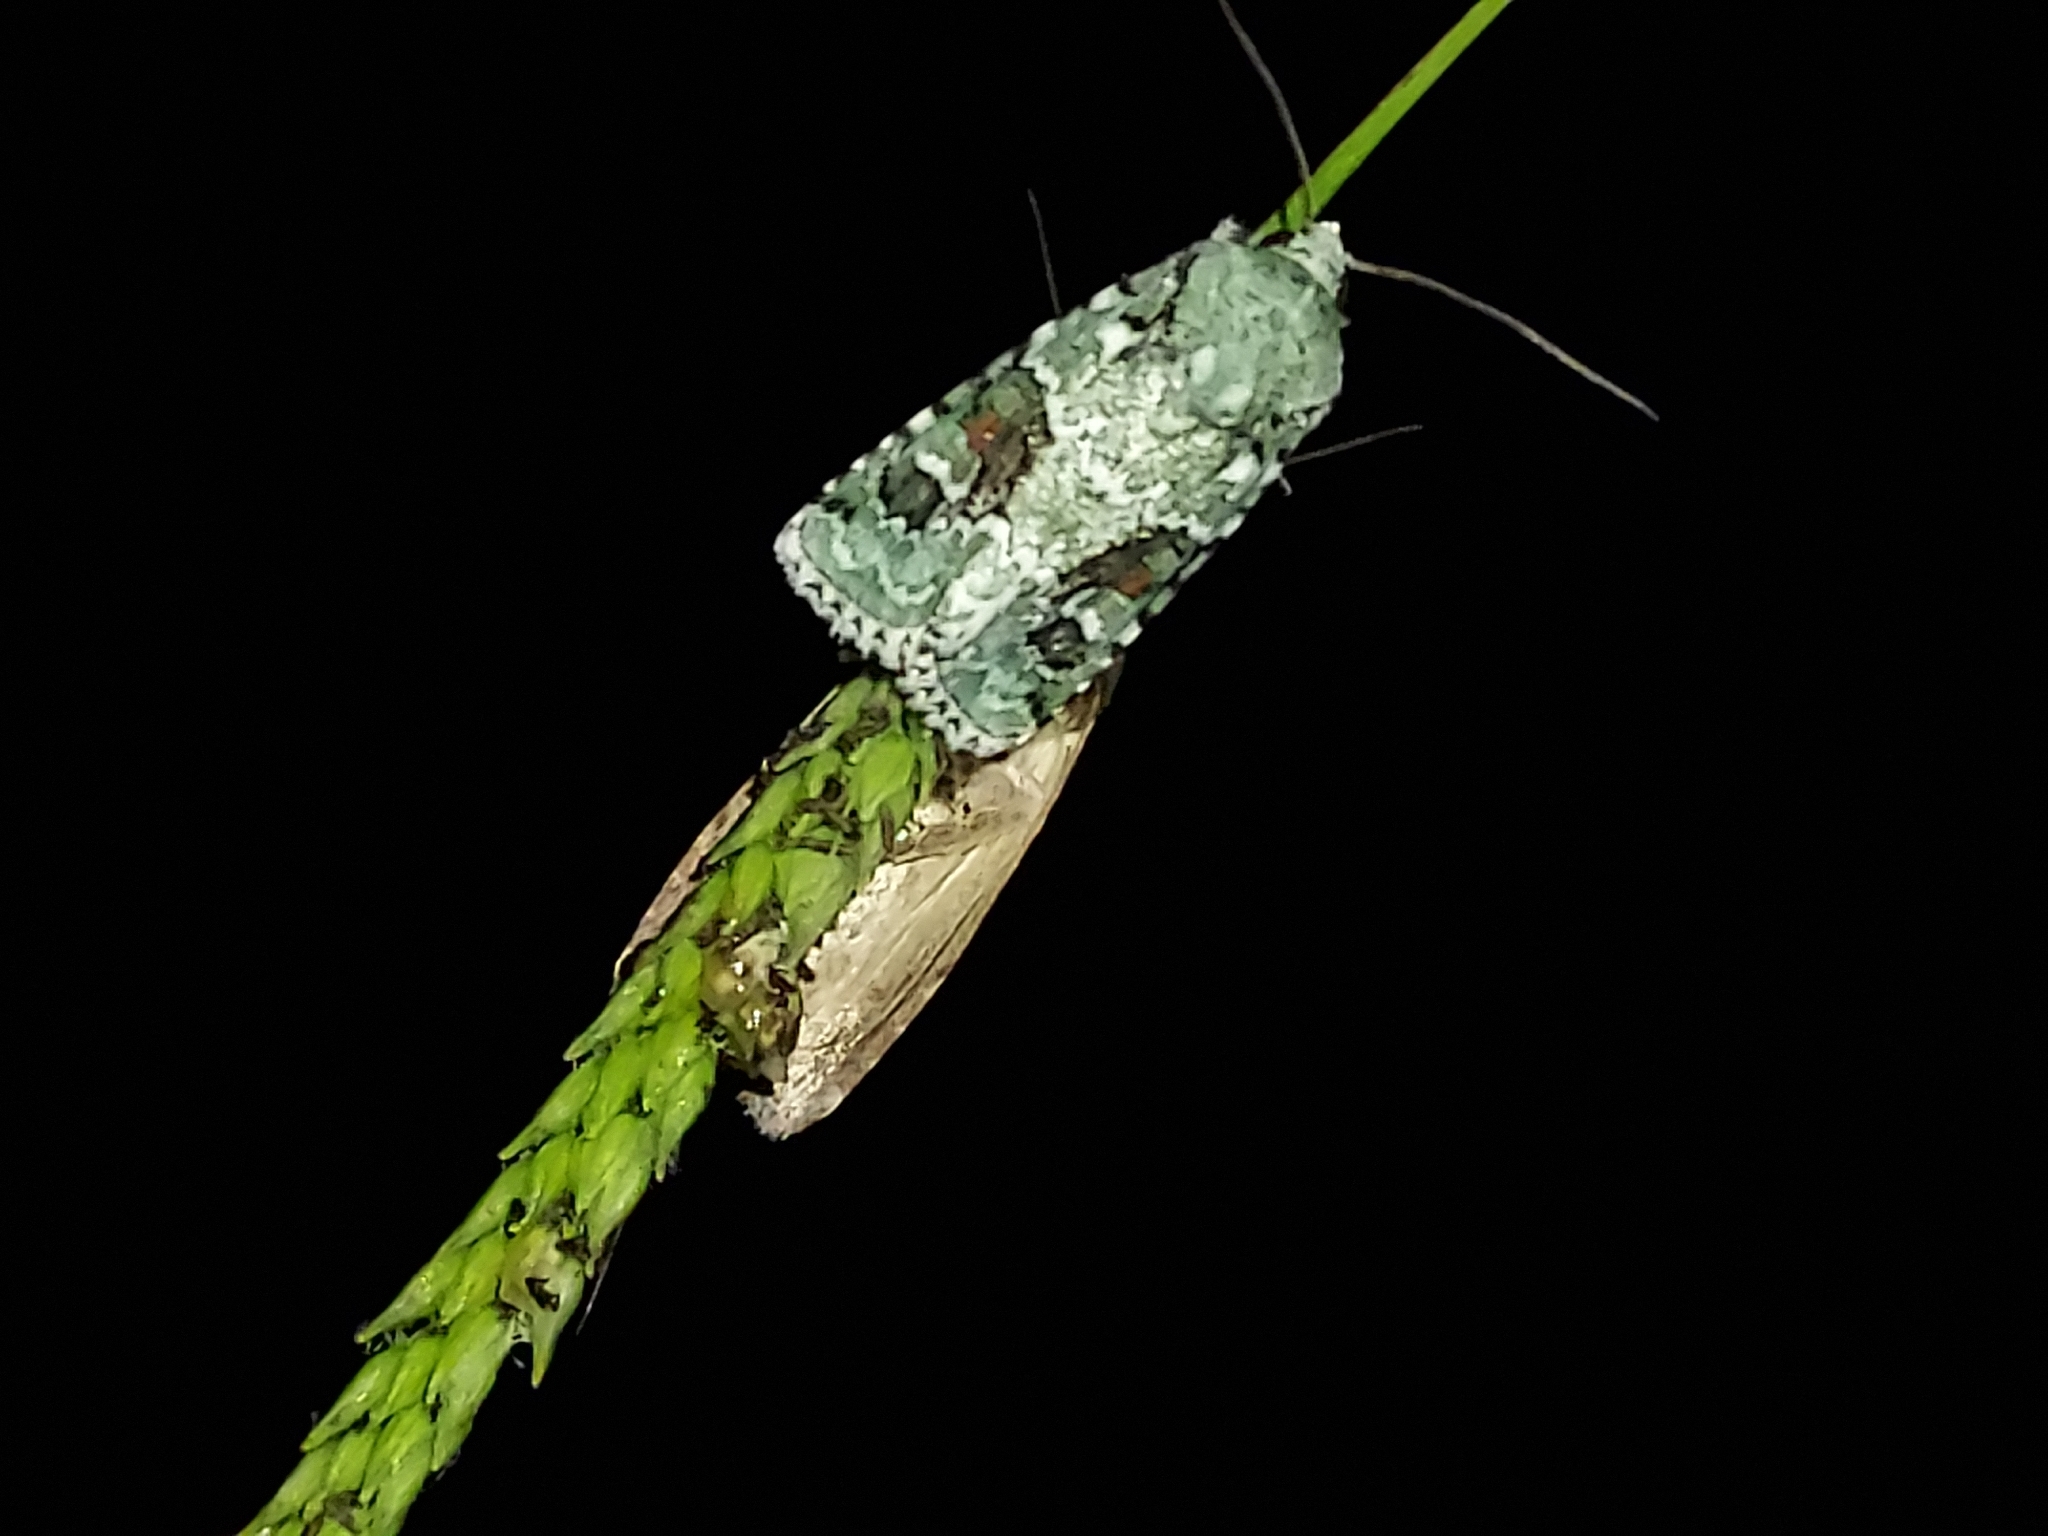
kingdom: Animalia
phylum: Arthropoda
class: Insecta
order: Lepidoptera
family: Noctuidae
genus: Lacinipolia
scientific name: Lacinipolia laudabilis
